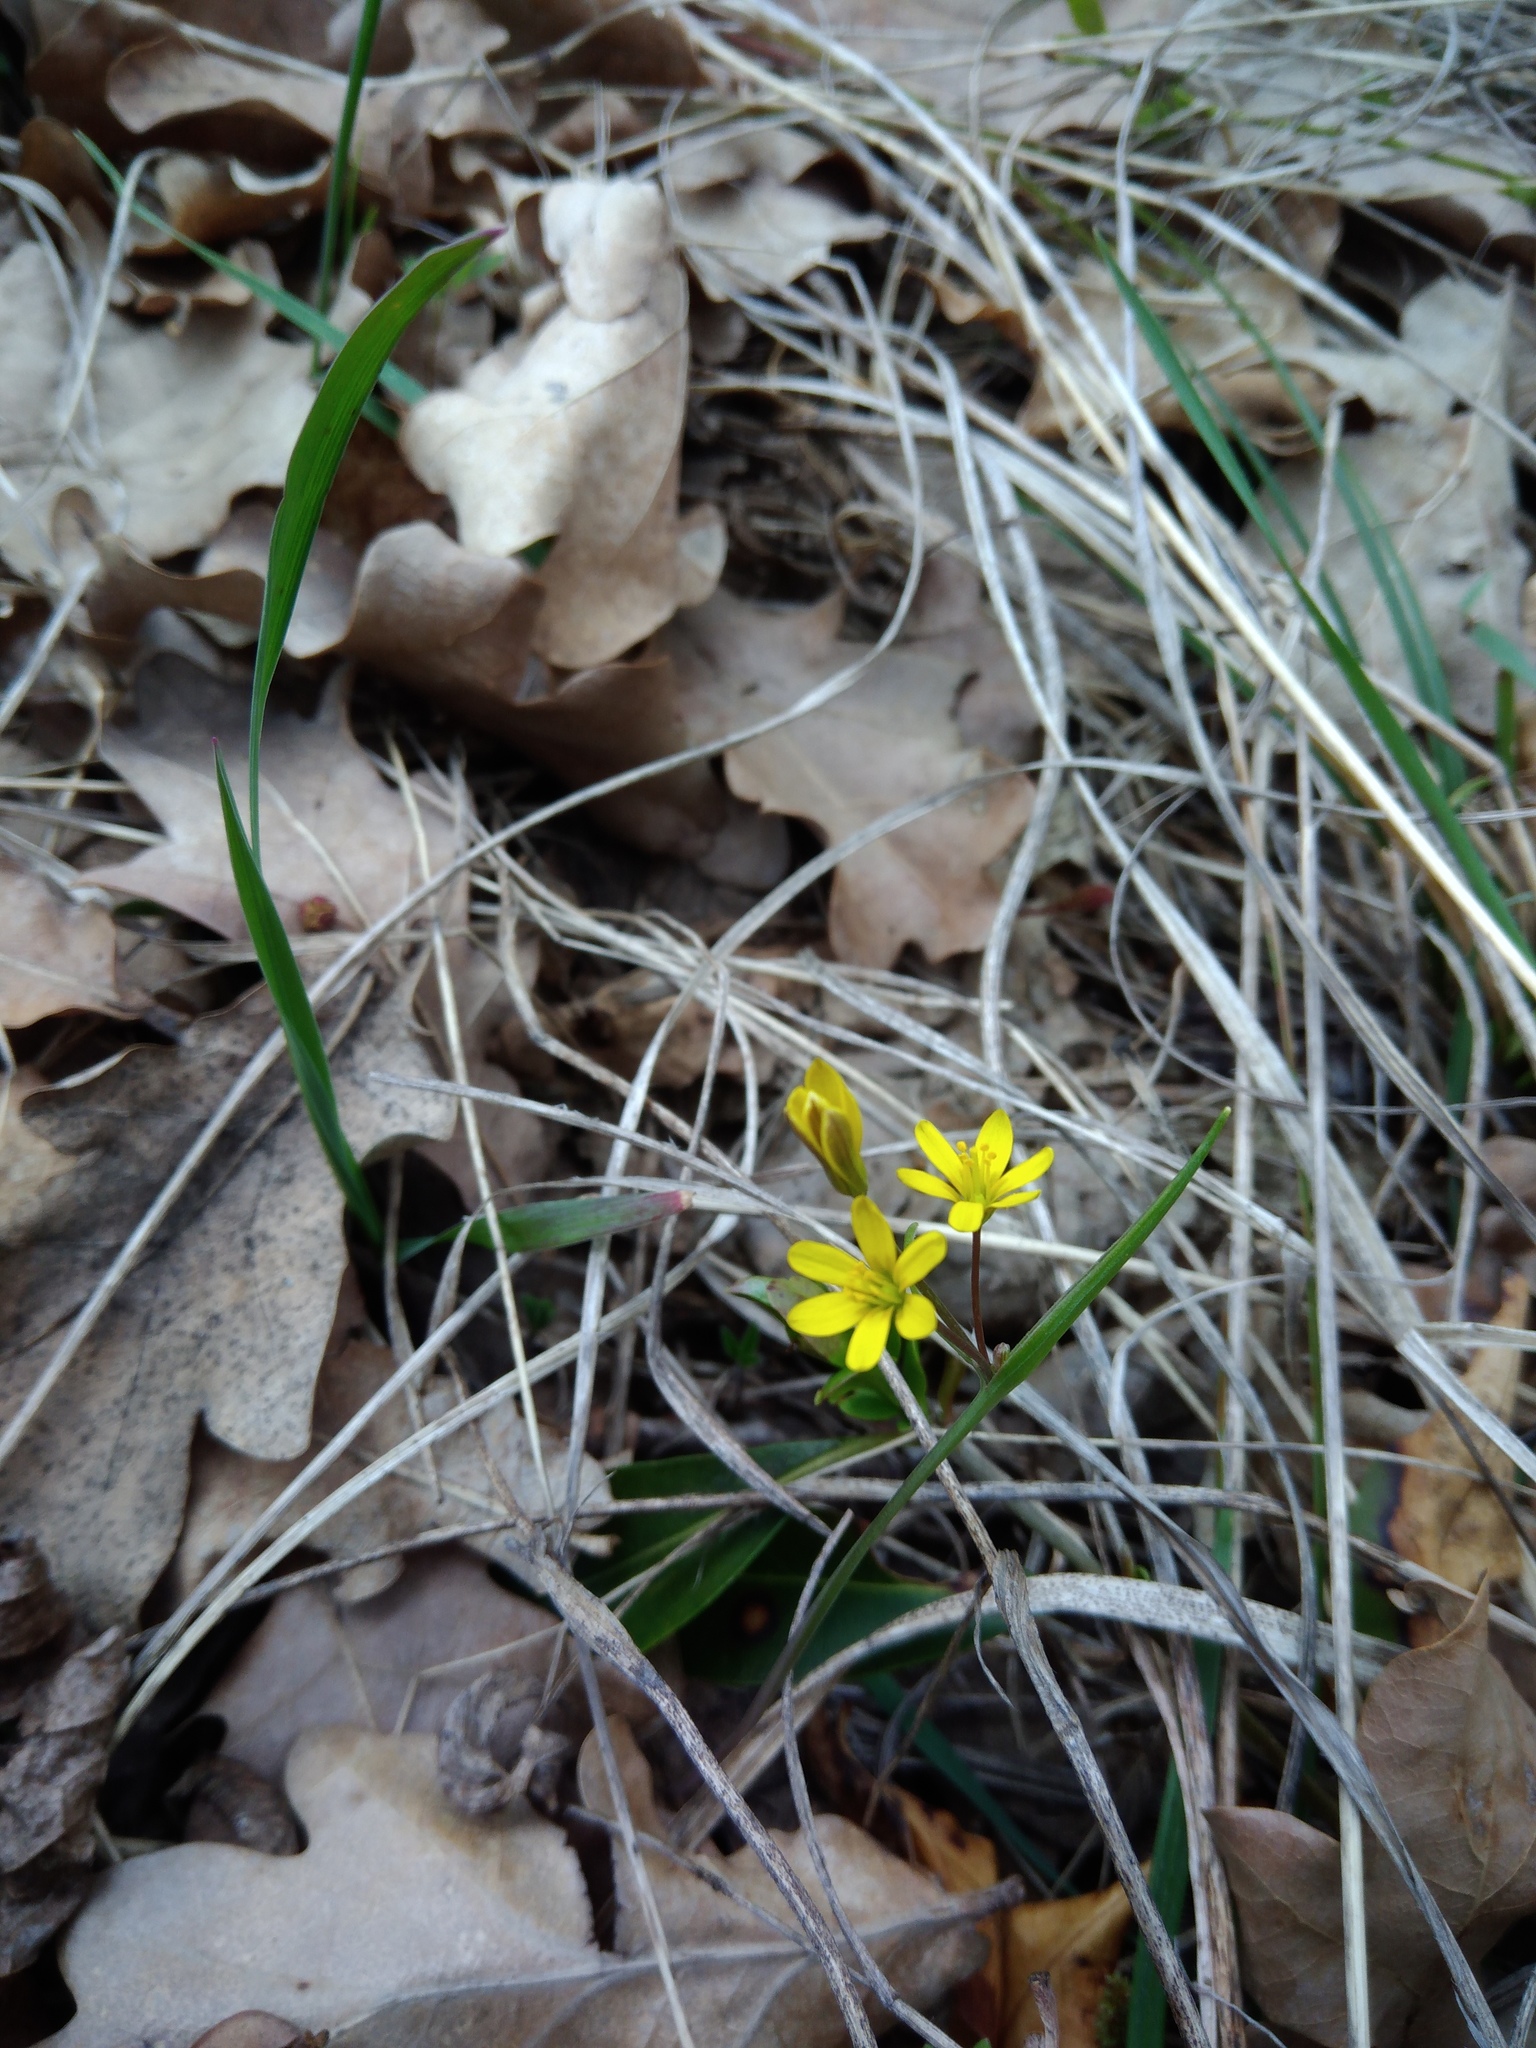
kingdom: Plantae
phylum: Tracheophyta
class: Liliopsida
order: Liliales
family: Liliaceae
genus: Gagea
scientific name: Gagea fragifera
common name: Lily
